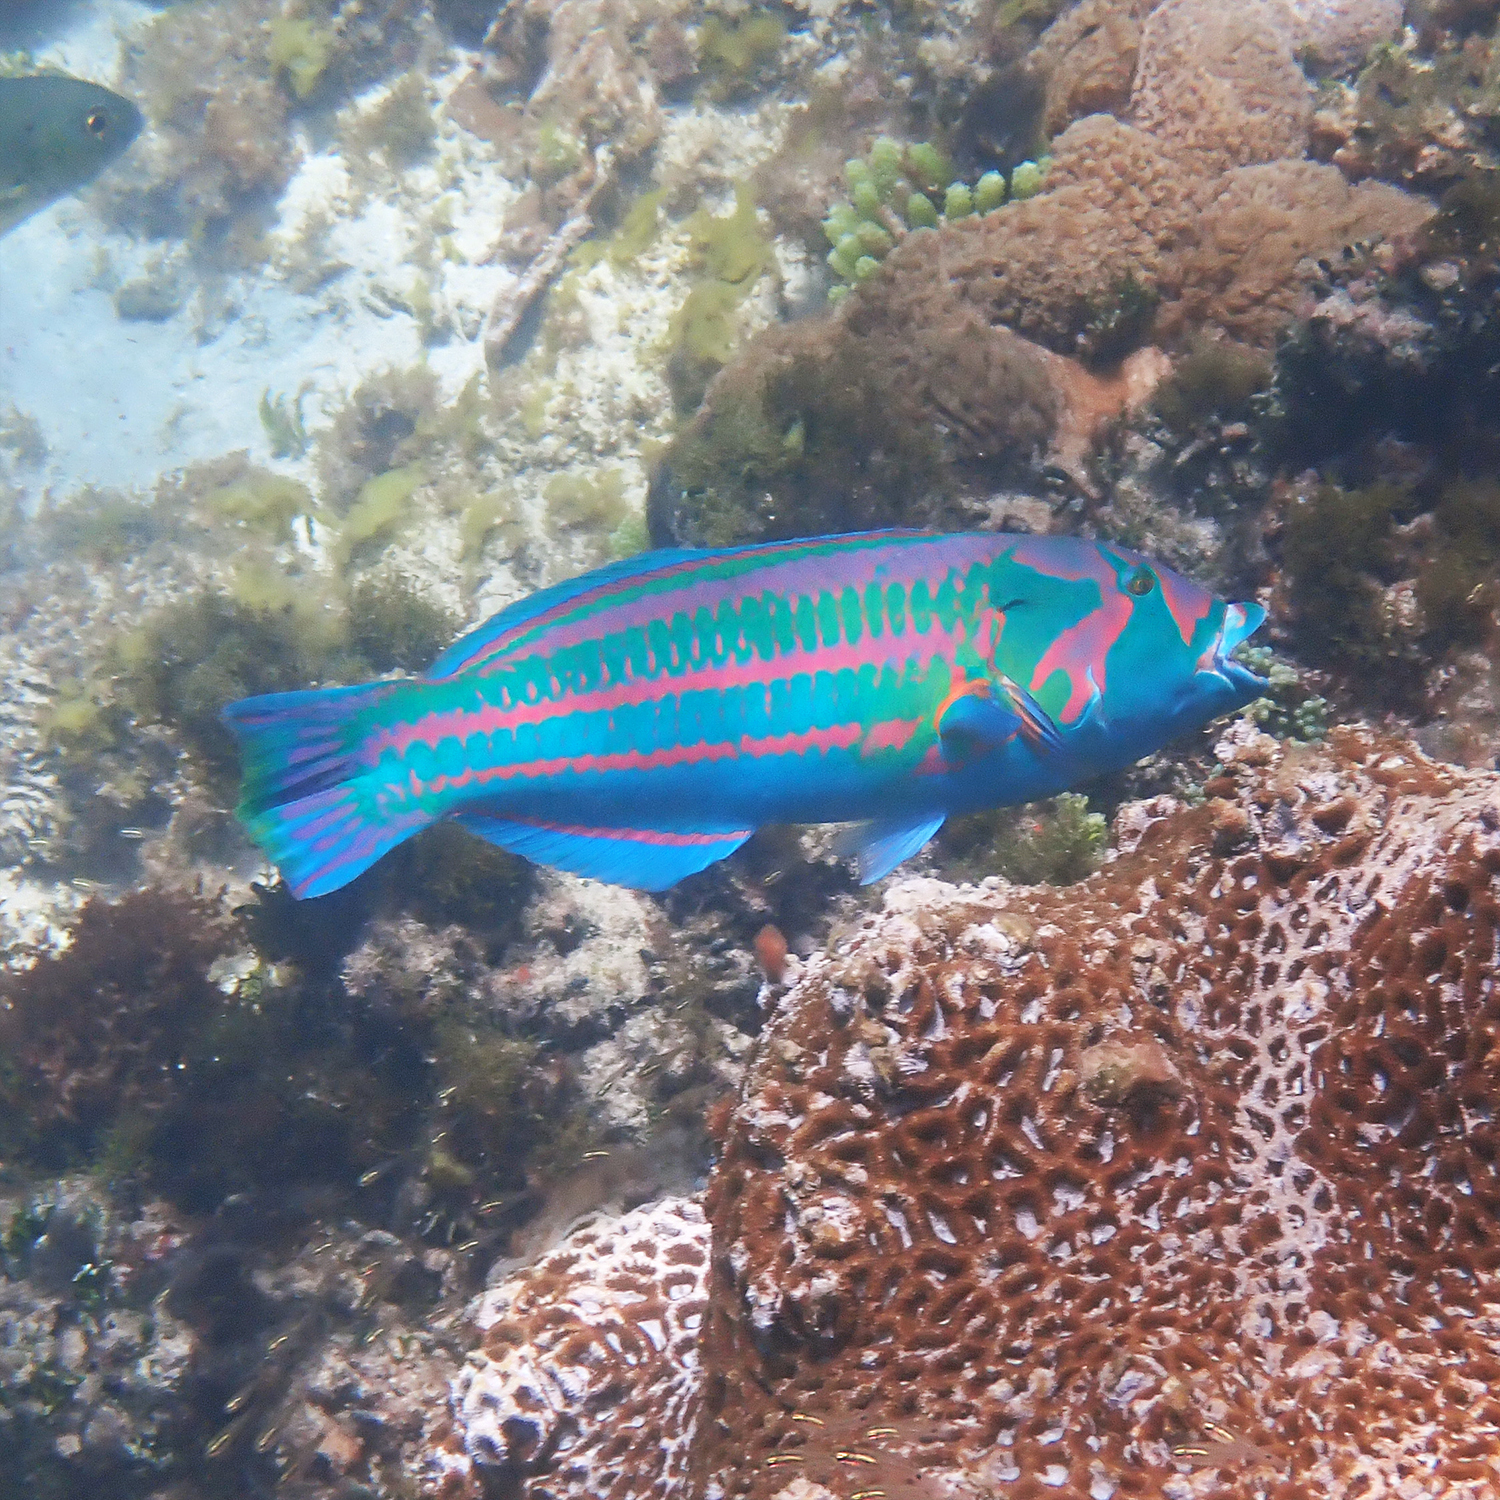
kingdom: Animalia
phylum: Chordata
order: Perciformes
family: Labridae
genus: Thalassoma
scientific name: Thalassoma purpureum
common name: Parrotfish
